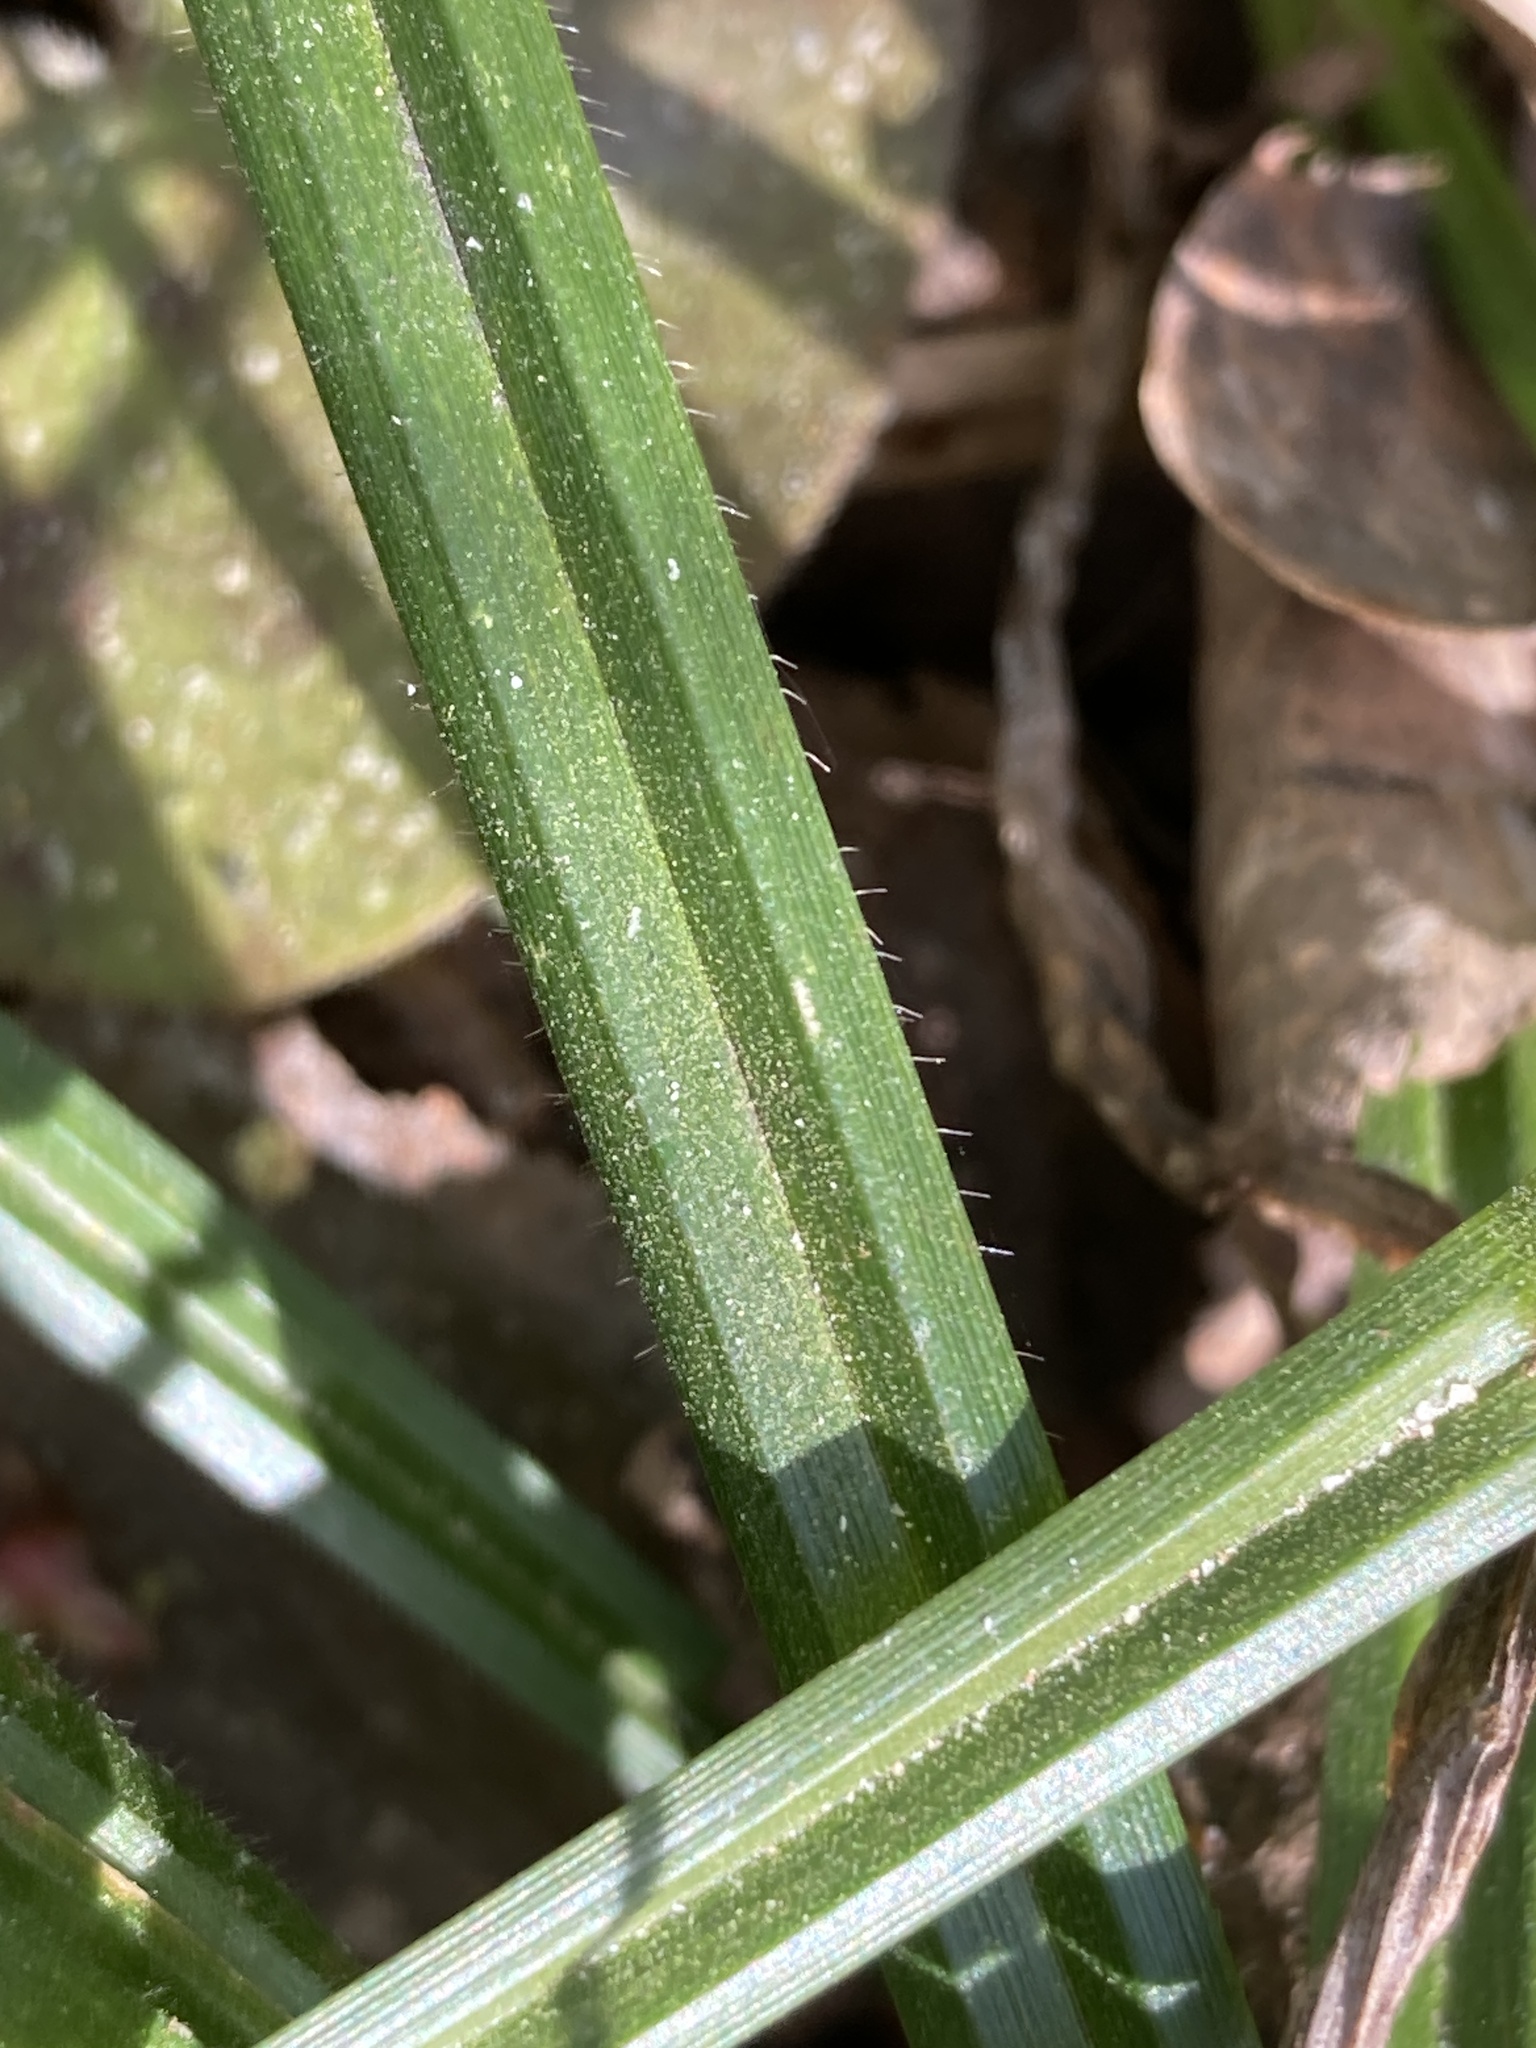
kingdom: Plantae
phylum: Tracheophyta
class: Liliopsida
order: Poales
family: Cyperaceae
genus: Carex
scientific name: Carex pilosa
